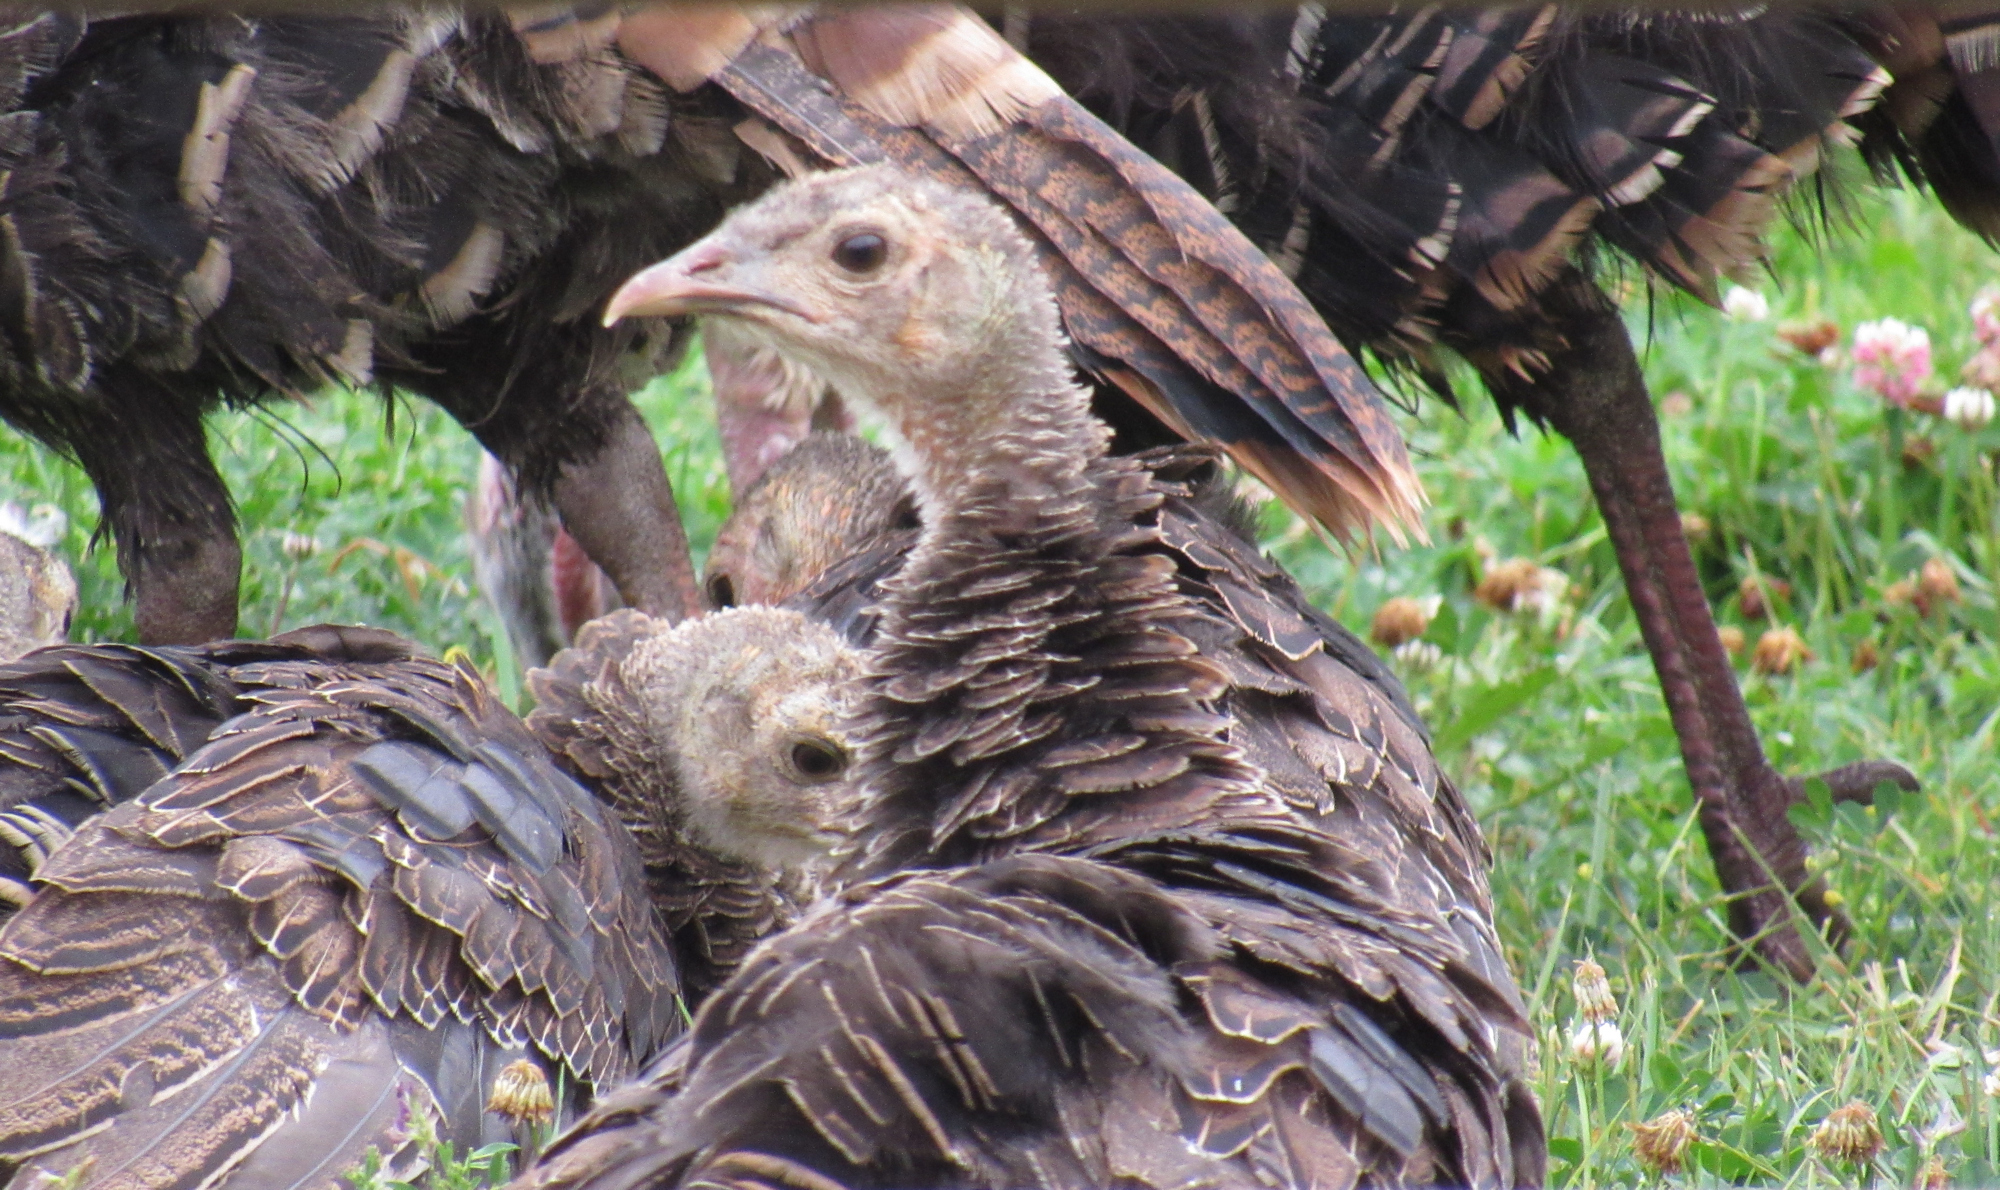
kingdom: Animalia
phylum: Chordata
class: Aves
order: Galliformes
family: Phasianidae
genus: Meleagris
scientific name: Meleagris gallopavo
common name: Wild turkey
